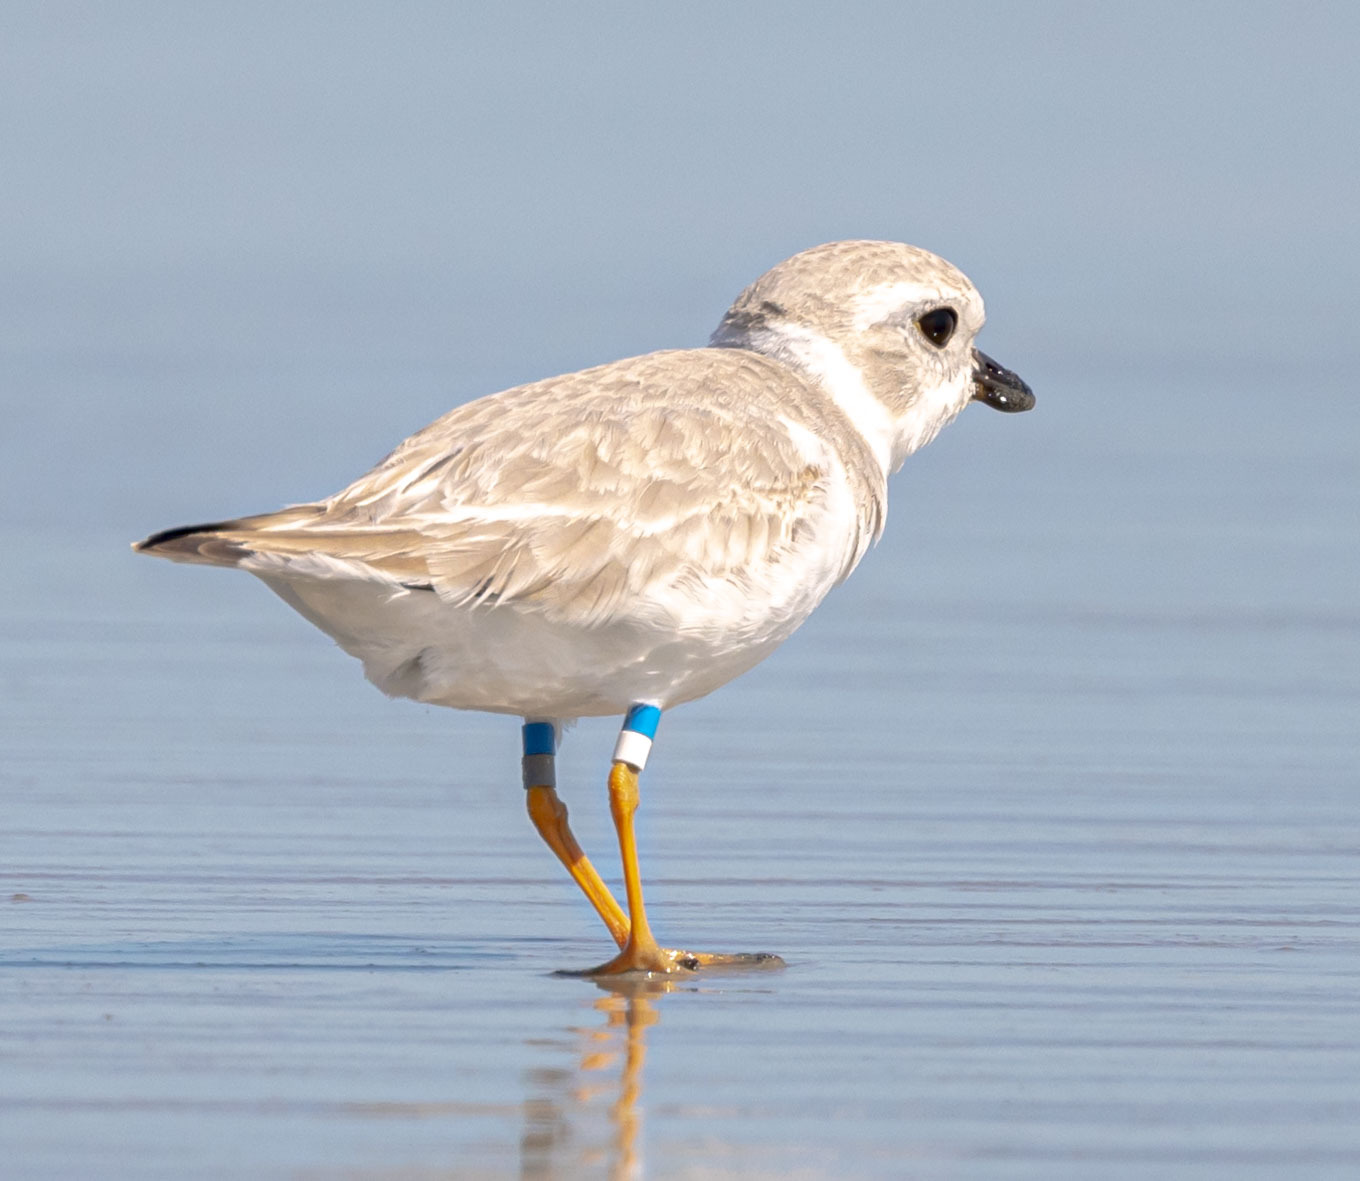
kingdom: Animalia
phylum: Chordata
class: Aves
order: Charadriiformes
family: Charadriidae
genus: Charadrius
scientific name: Charadrius melodus
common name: Piping plover
